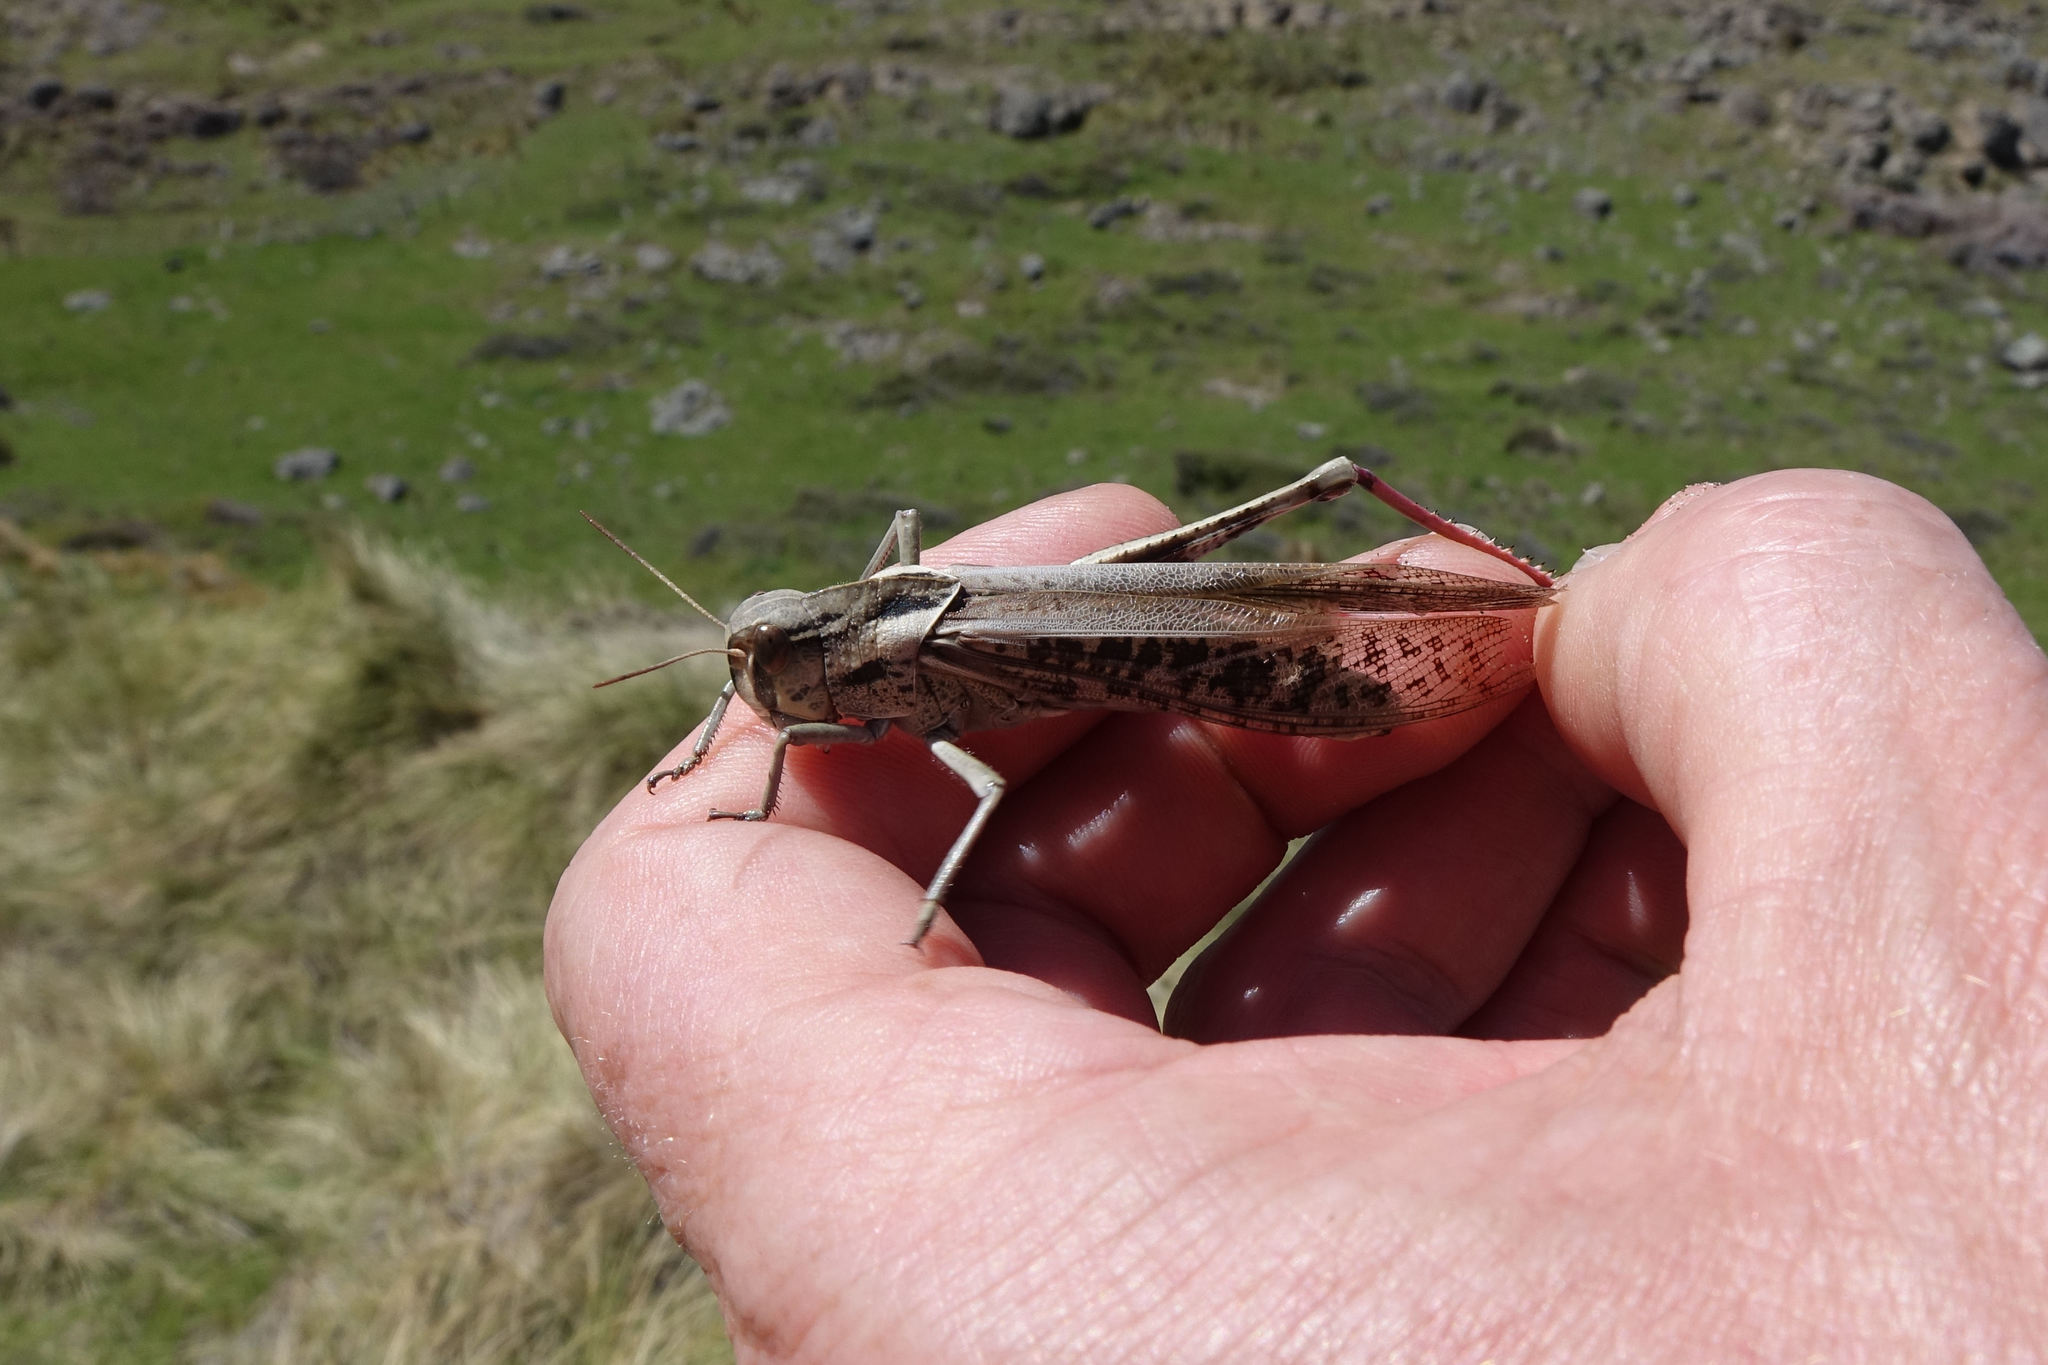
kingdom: Animalia
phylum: Arthropoda
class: Insecta
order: Orthoptera
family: Acrididae
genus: Locusta
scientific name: Locusta migratoria
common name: Migratory locust
